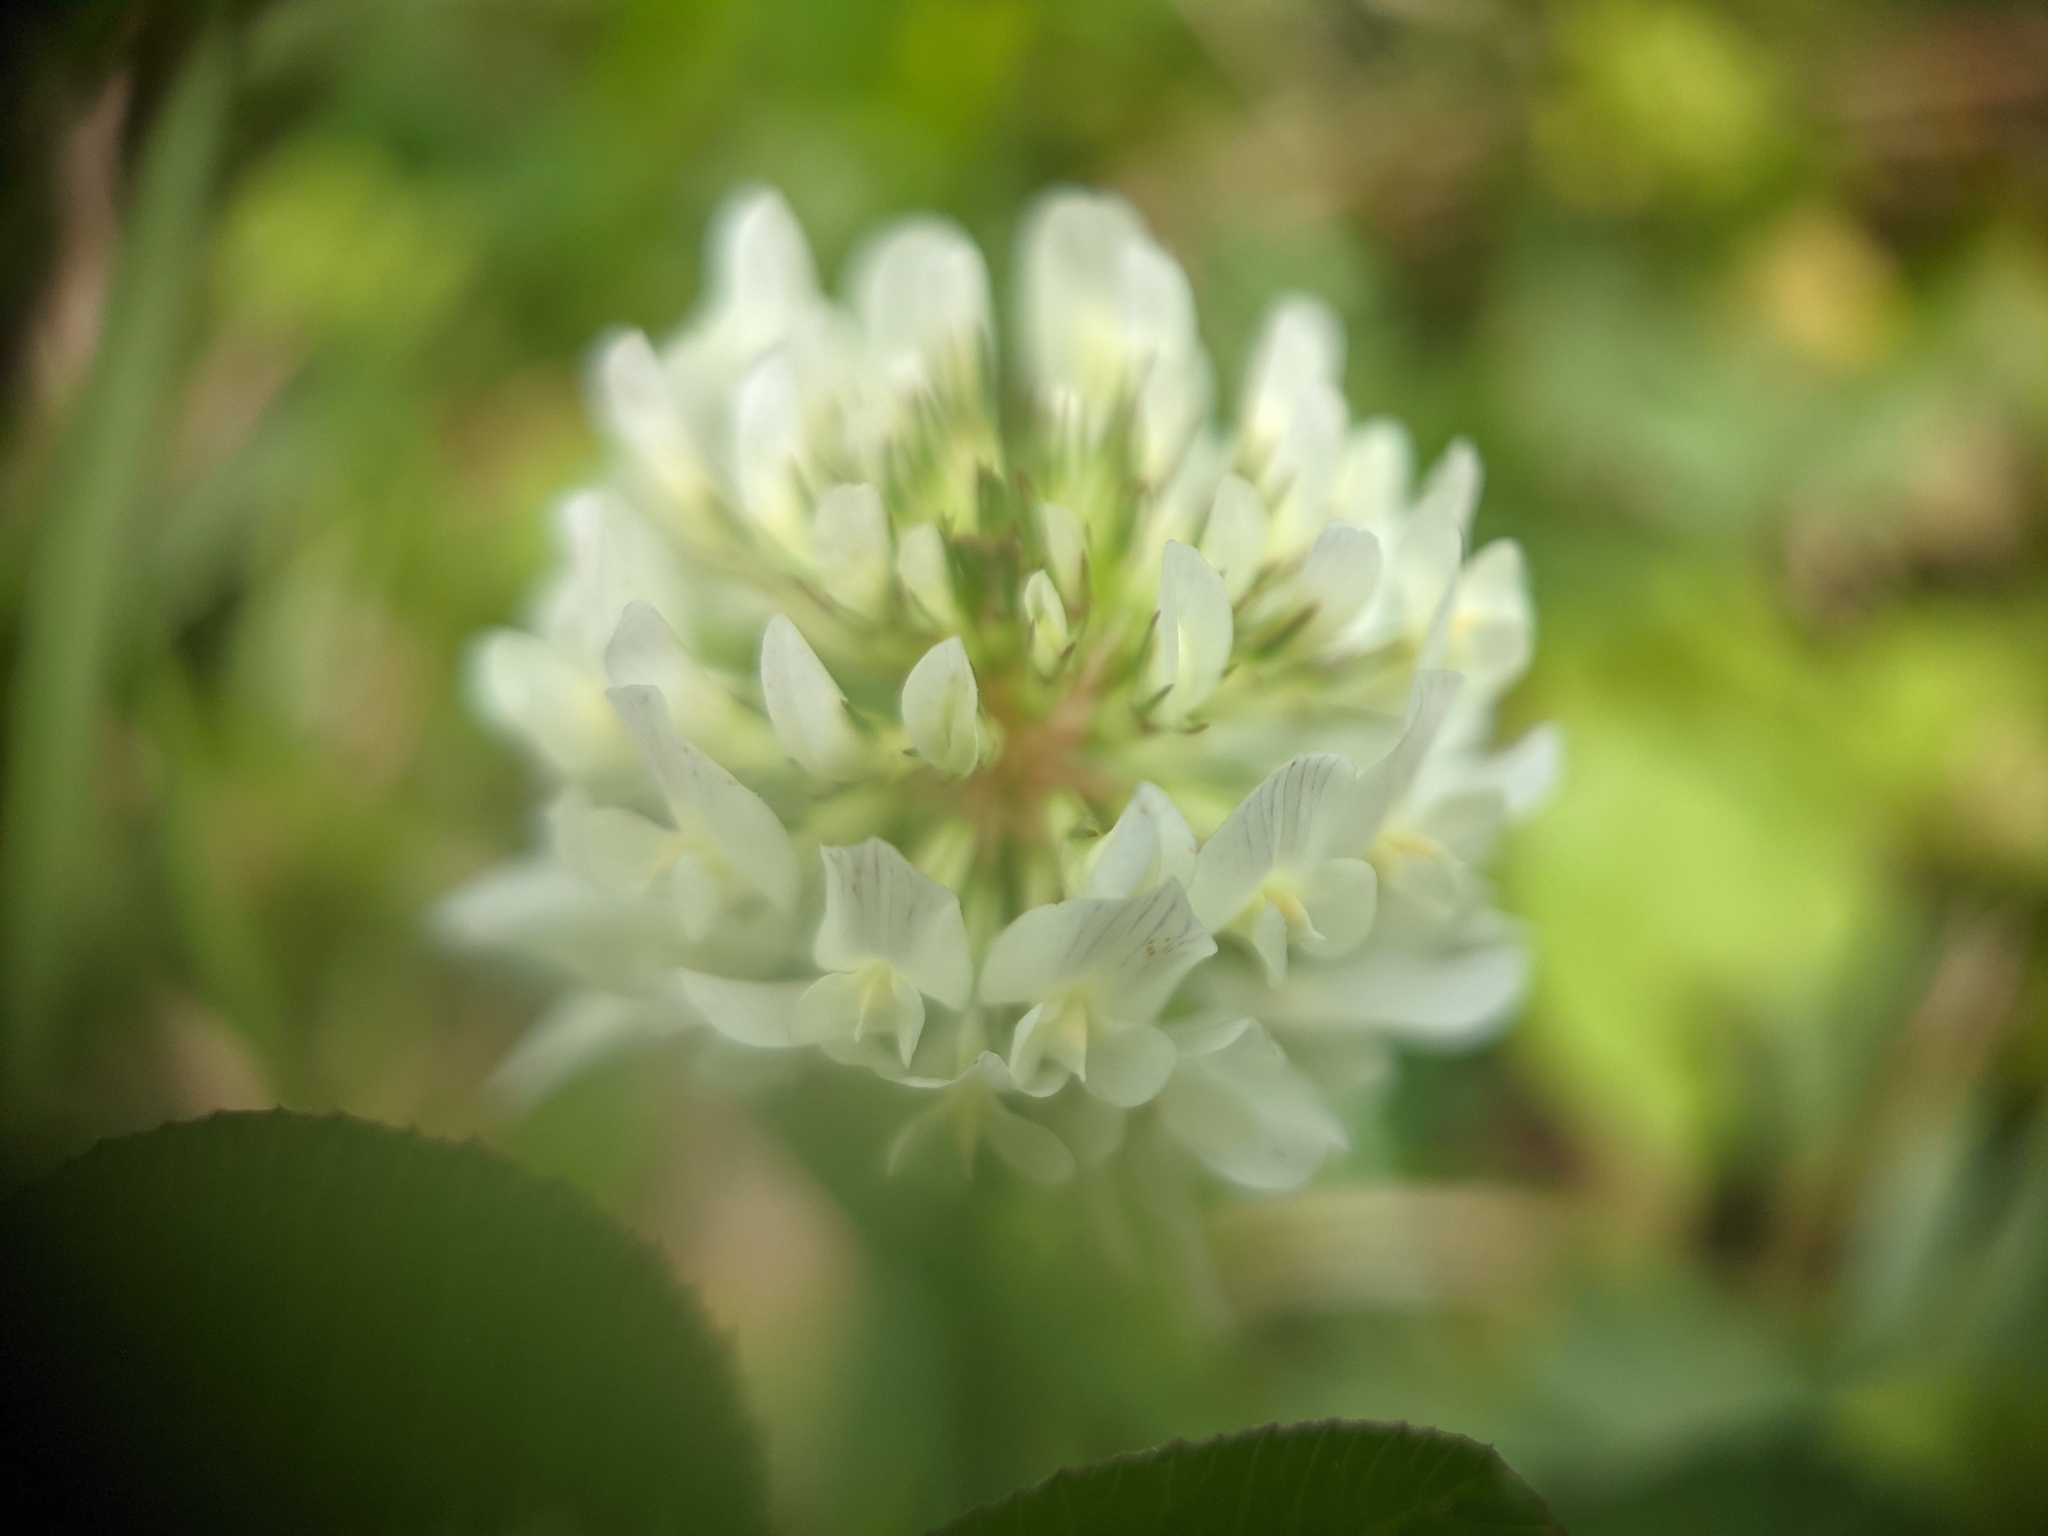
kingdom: Plantae
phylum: Tracheophyta
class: Magnoliopsida
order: Fabales
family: Fabaceae
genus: Trifolium
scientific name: Trifolium repens
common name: White clover
